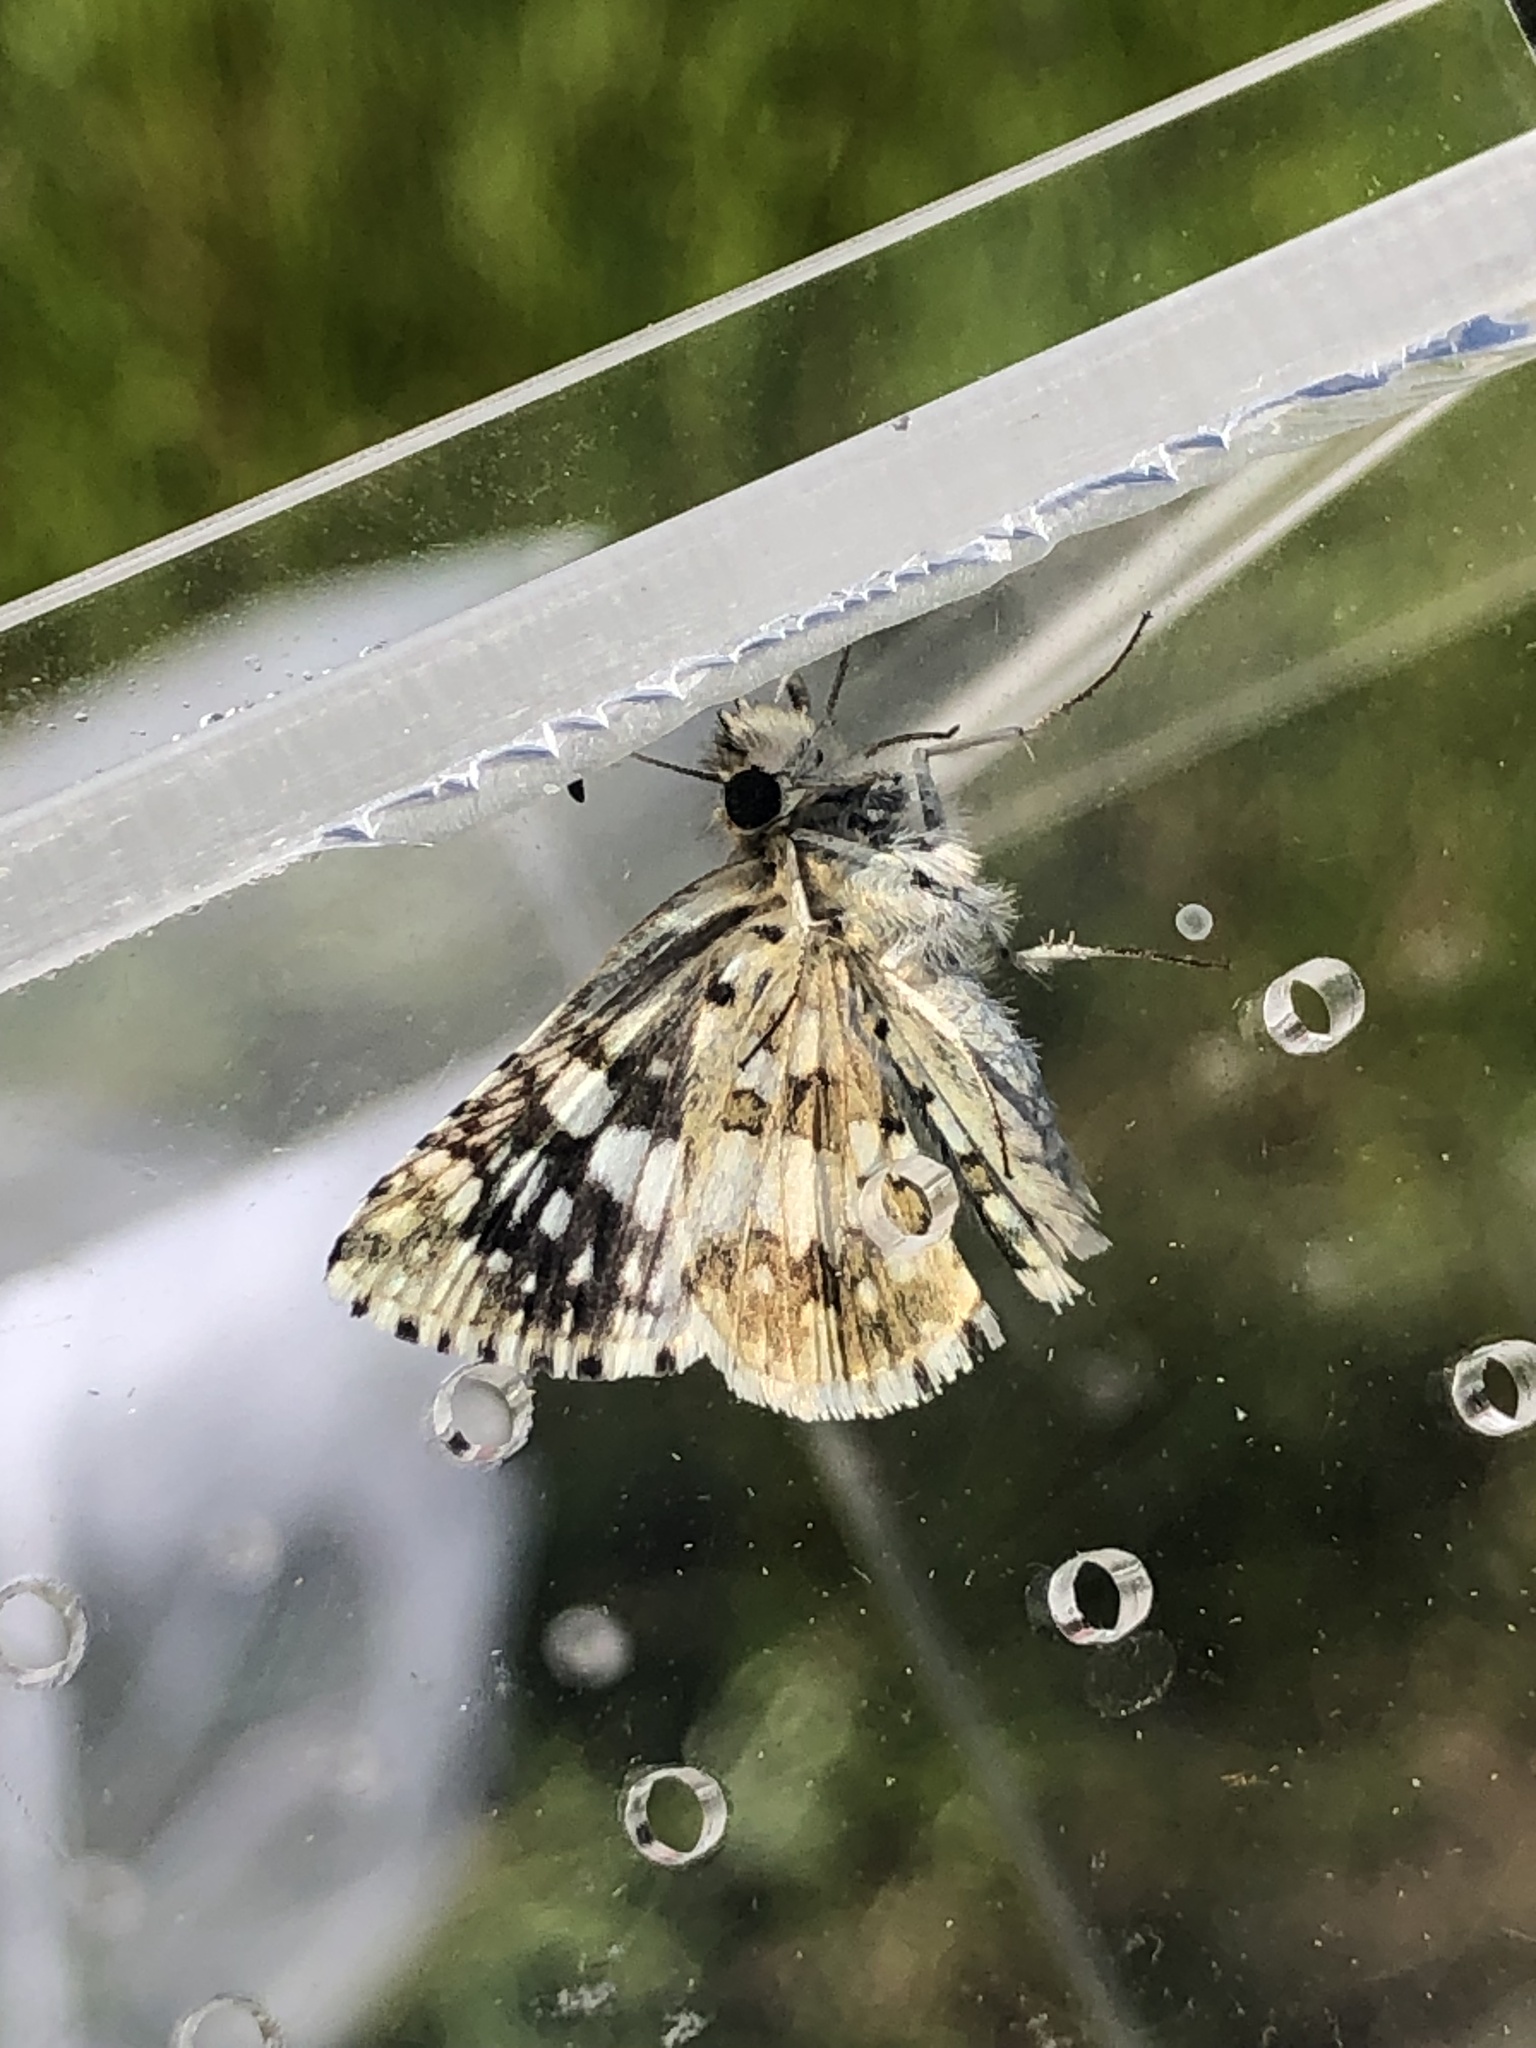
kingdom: Animalia
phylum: Arthropoda
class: Insecta
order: Lepidoptera
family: Hesperiidae
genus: Burnsius
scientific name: Burnsius
